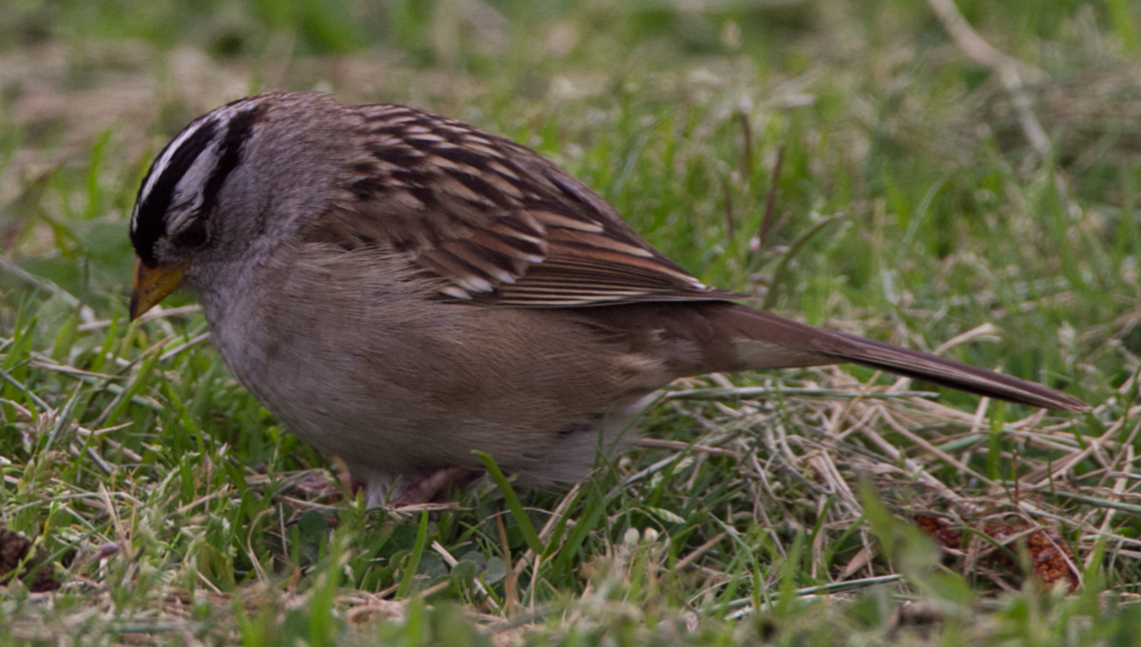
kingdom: Animalia
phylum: Chordata
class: Aves
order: Passeriformes
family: Passerellidae
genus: Zonotrichia
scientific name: Zonotrichia leucophrys
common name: White-crowned sparrow
